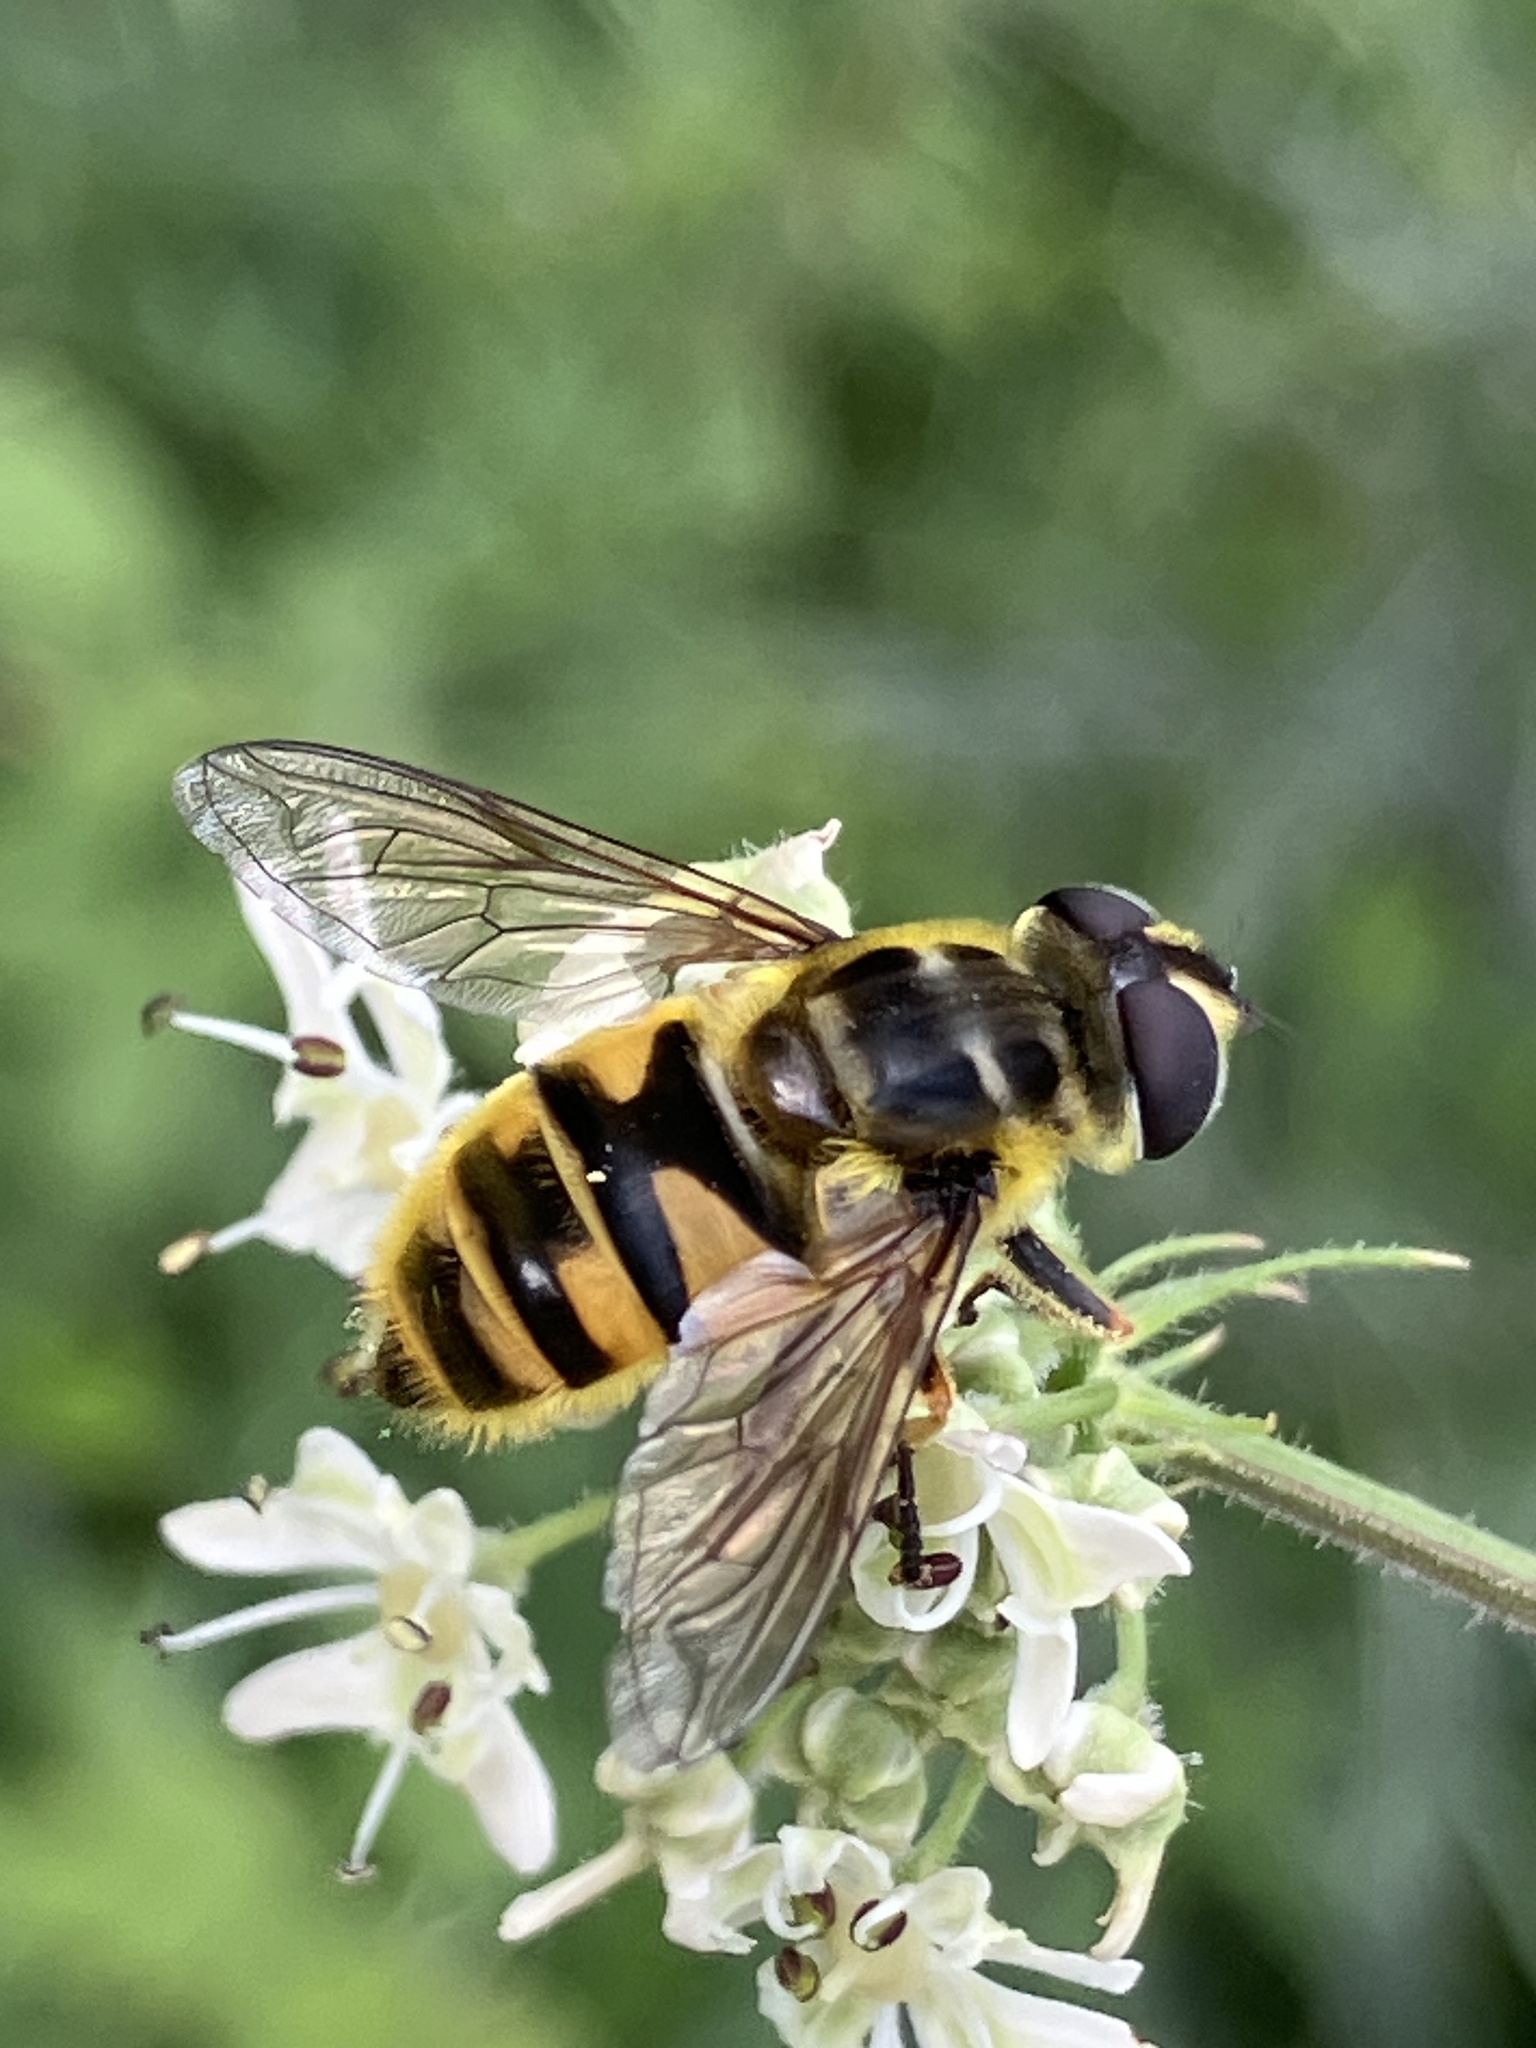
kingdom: Animalia
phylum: Arthropoda
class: Insecta
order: Diptera
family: Syrphidae
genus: Myathropa
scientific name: Myathropa florea
